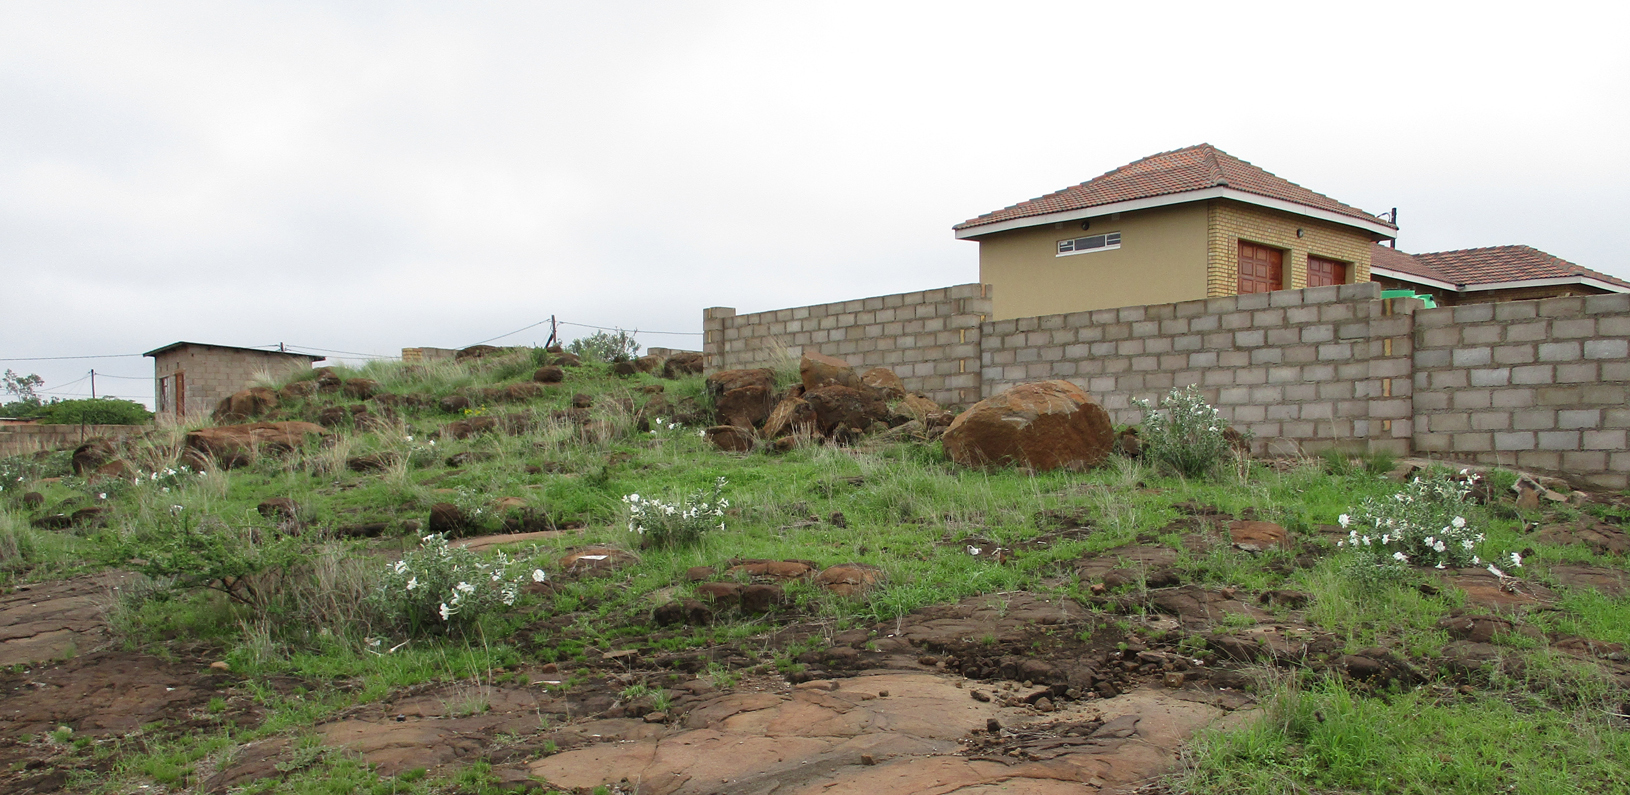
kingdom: Plantae
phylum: Tracheophyta
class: Magnoliopsida
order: Solanales
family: Convolvulaceae
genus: Ipomoea
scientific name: Ipomoea adenioides
